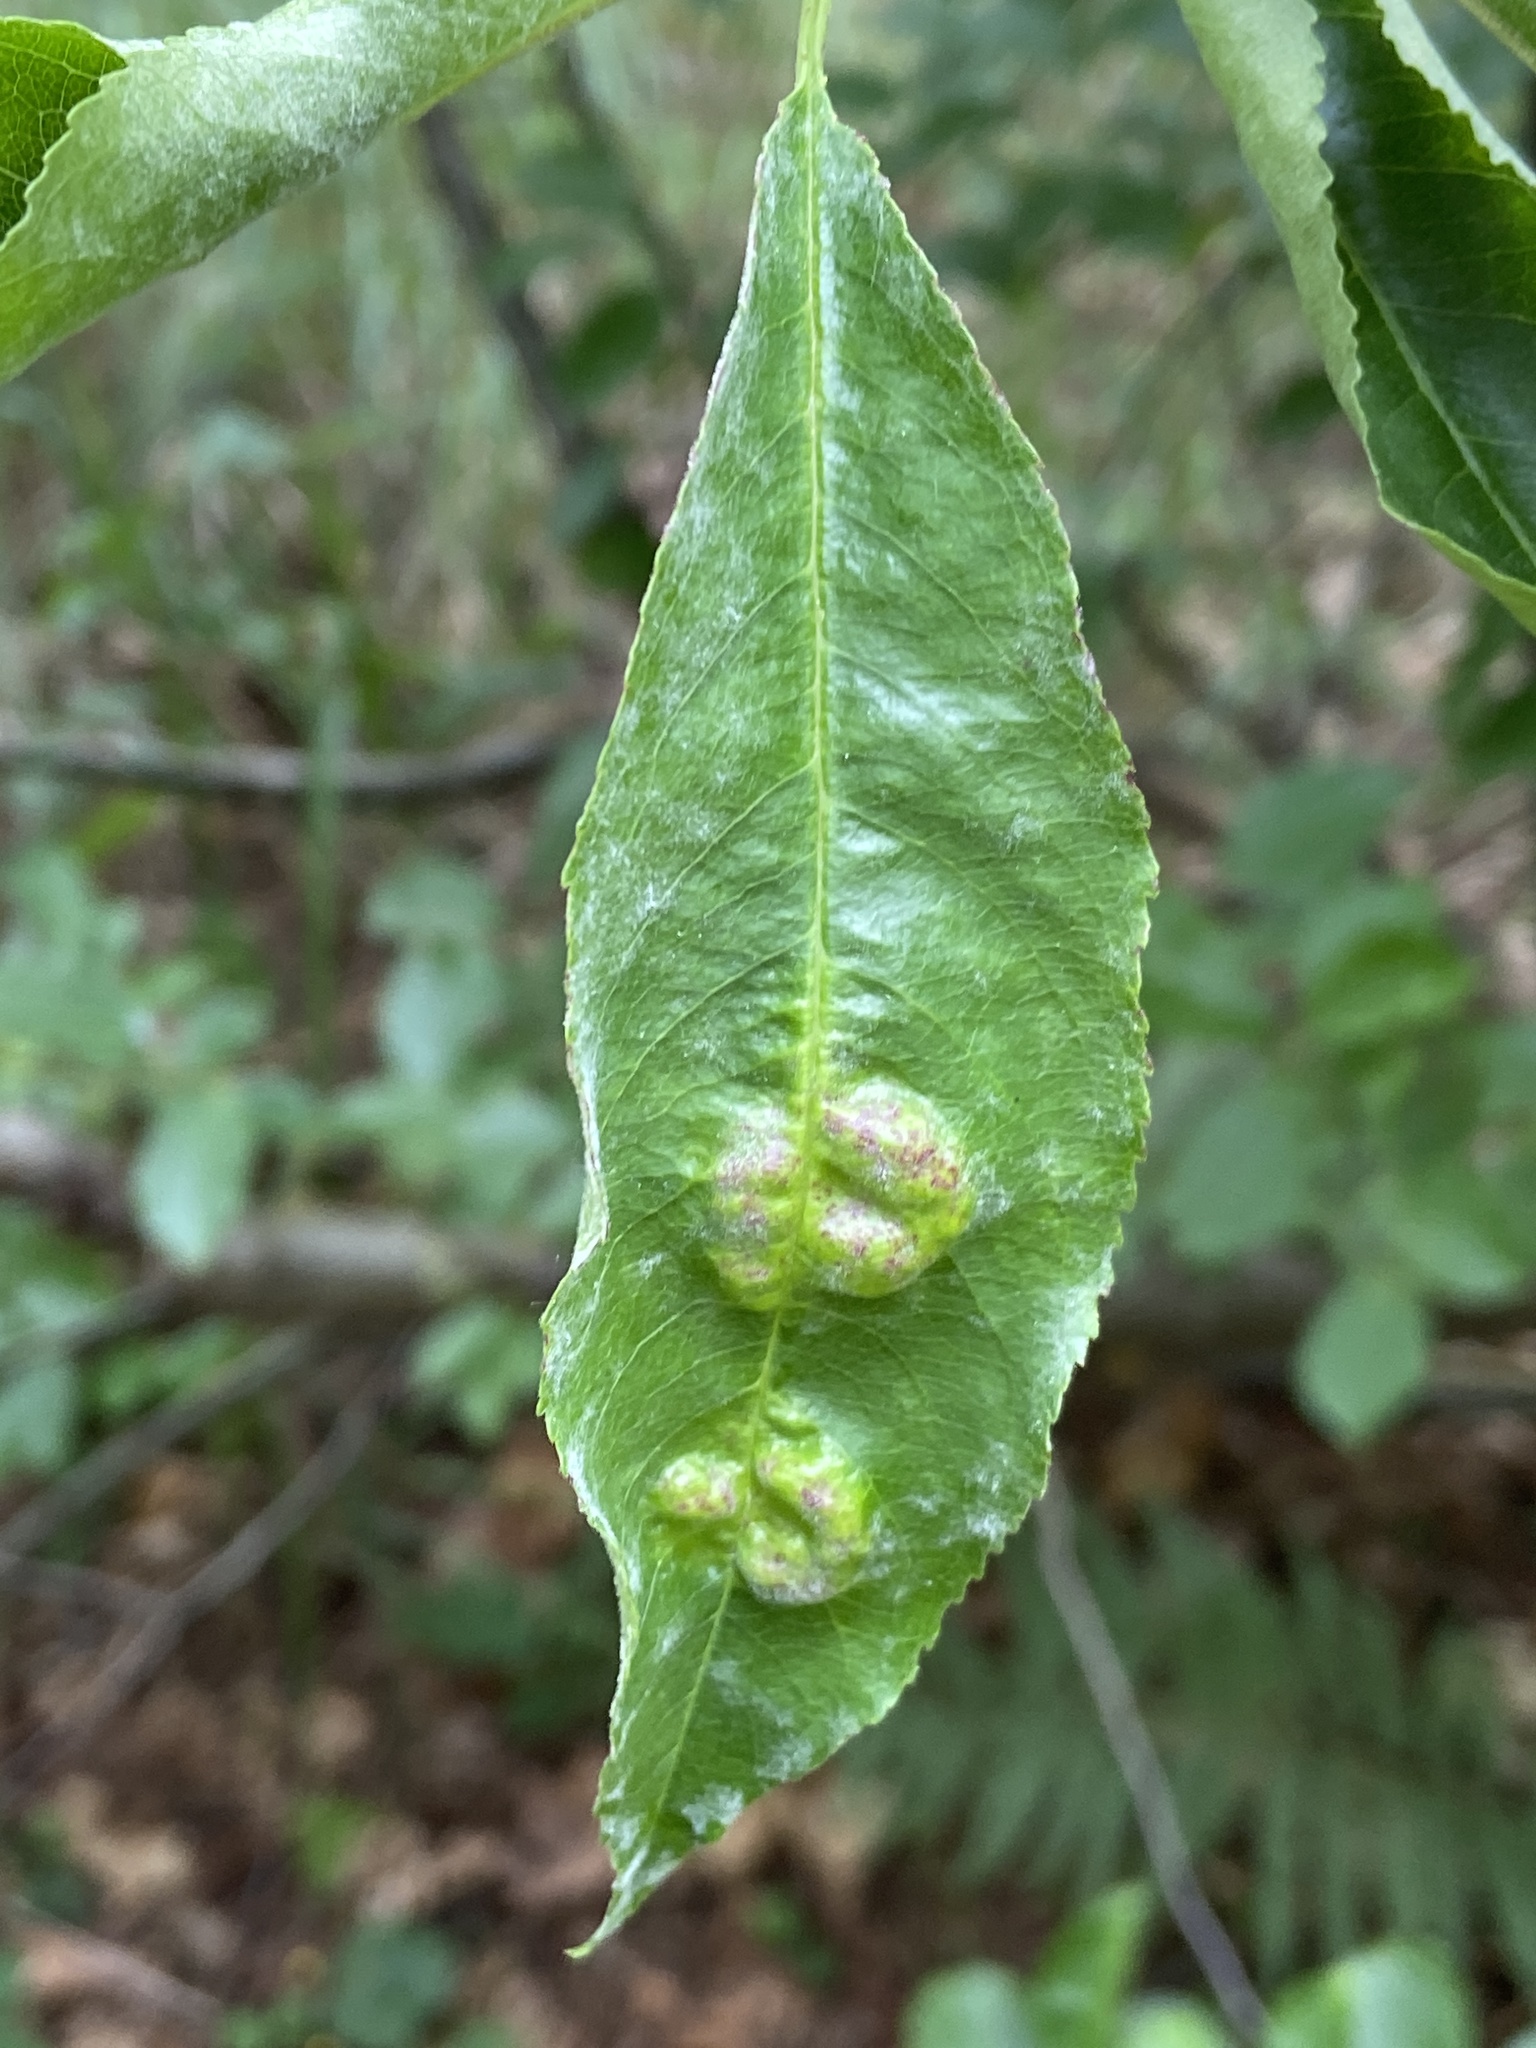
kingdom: Fungi
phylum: Ascomycota
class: Taphrinomycetes
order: Taphrinales
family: Taphrinaceae
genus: Taphrina
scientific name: Taphrina deformans
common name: Peach leaf curl
